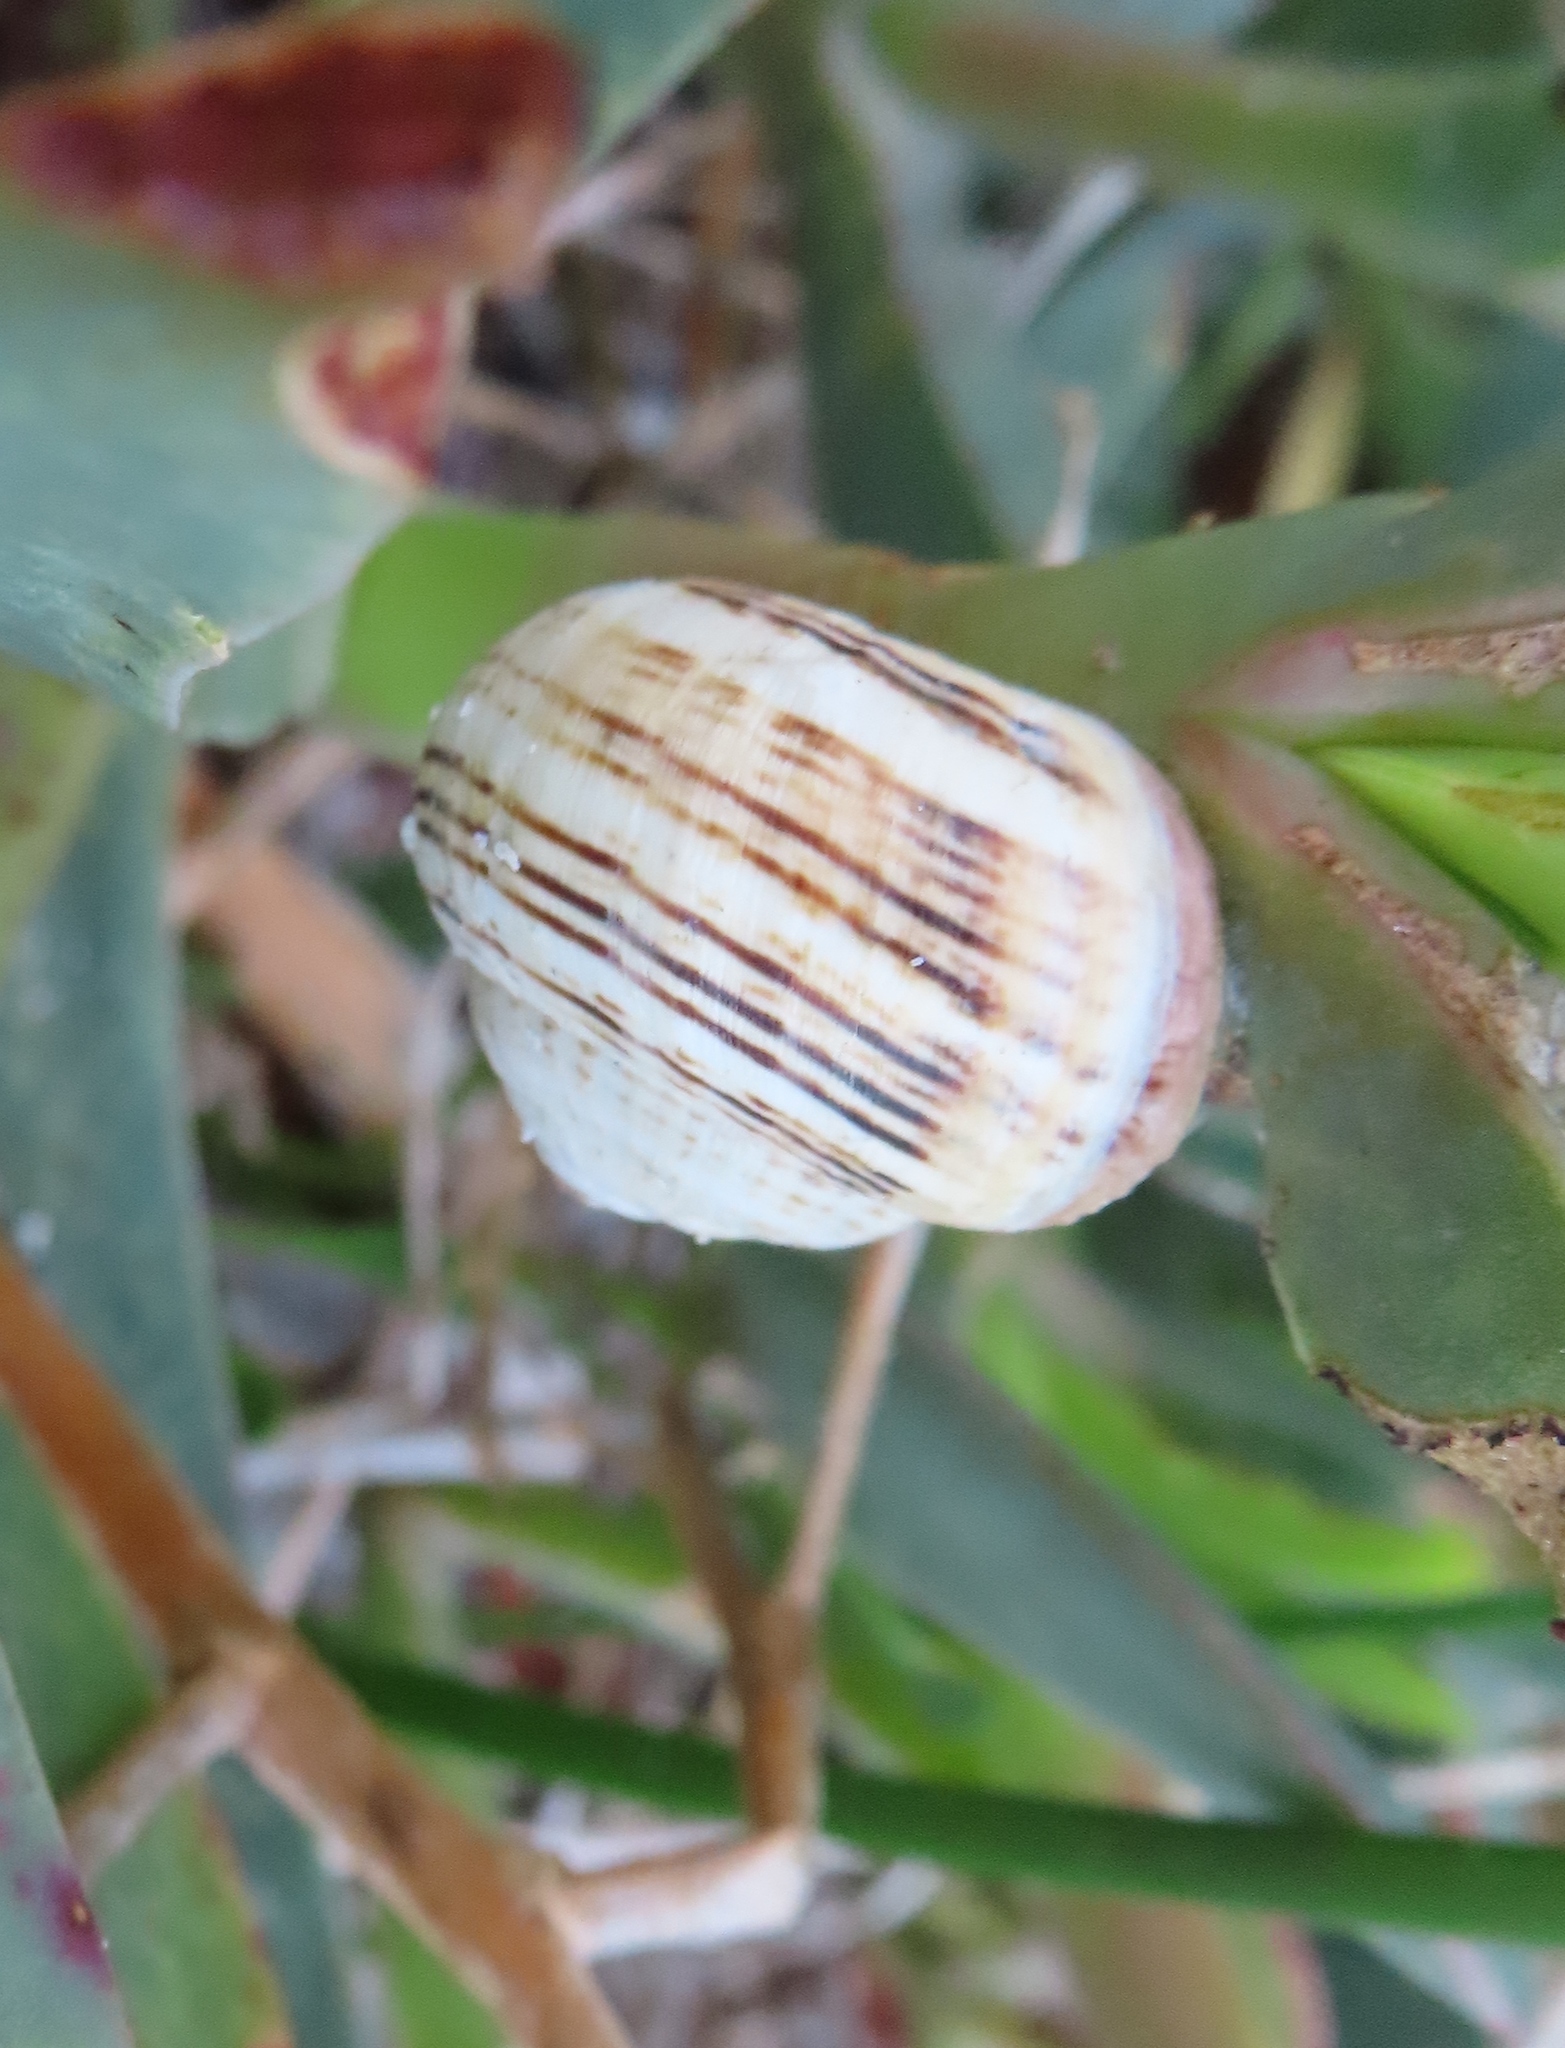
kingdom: Animalia
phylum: Mollusca
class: Gastropoda
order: Stylommatophora
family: Helicidae
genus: Theba
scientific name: Theba pisana
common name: White snail
